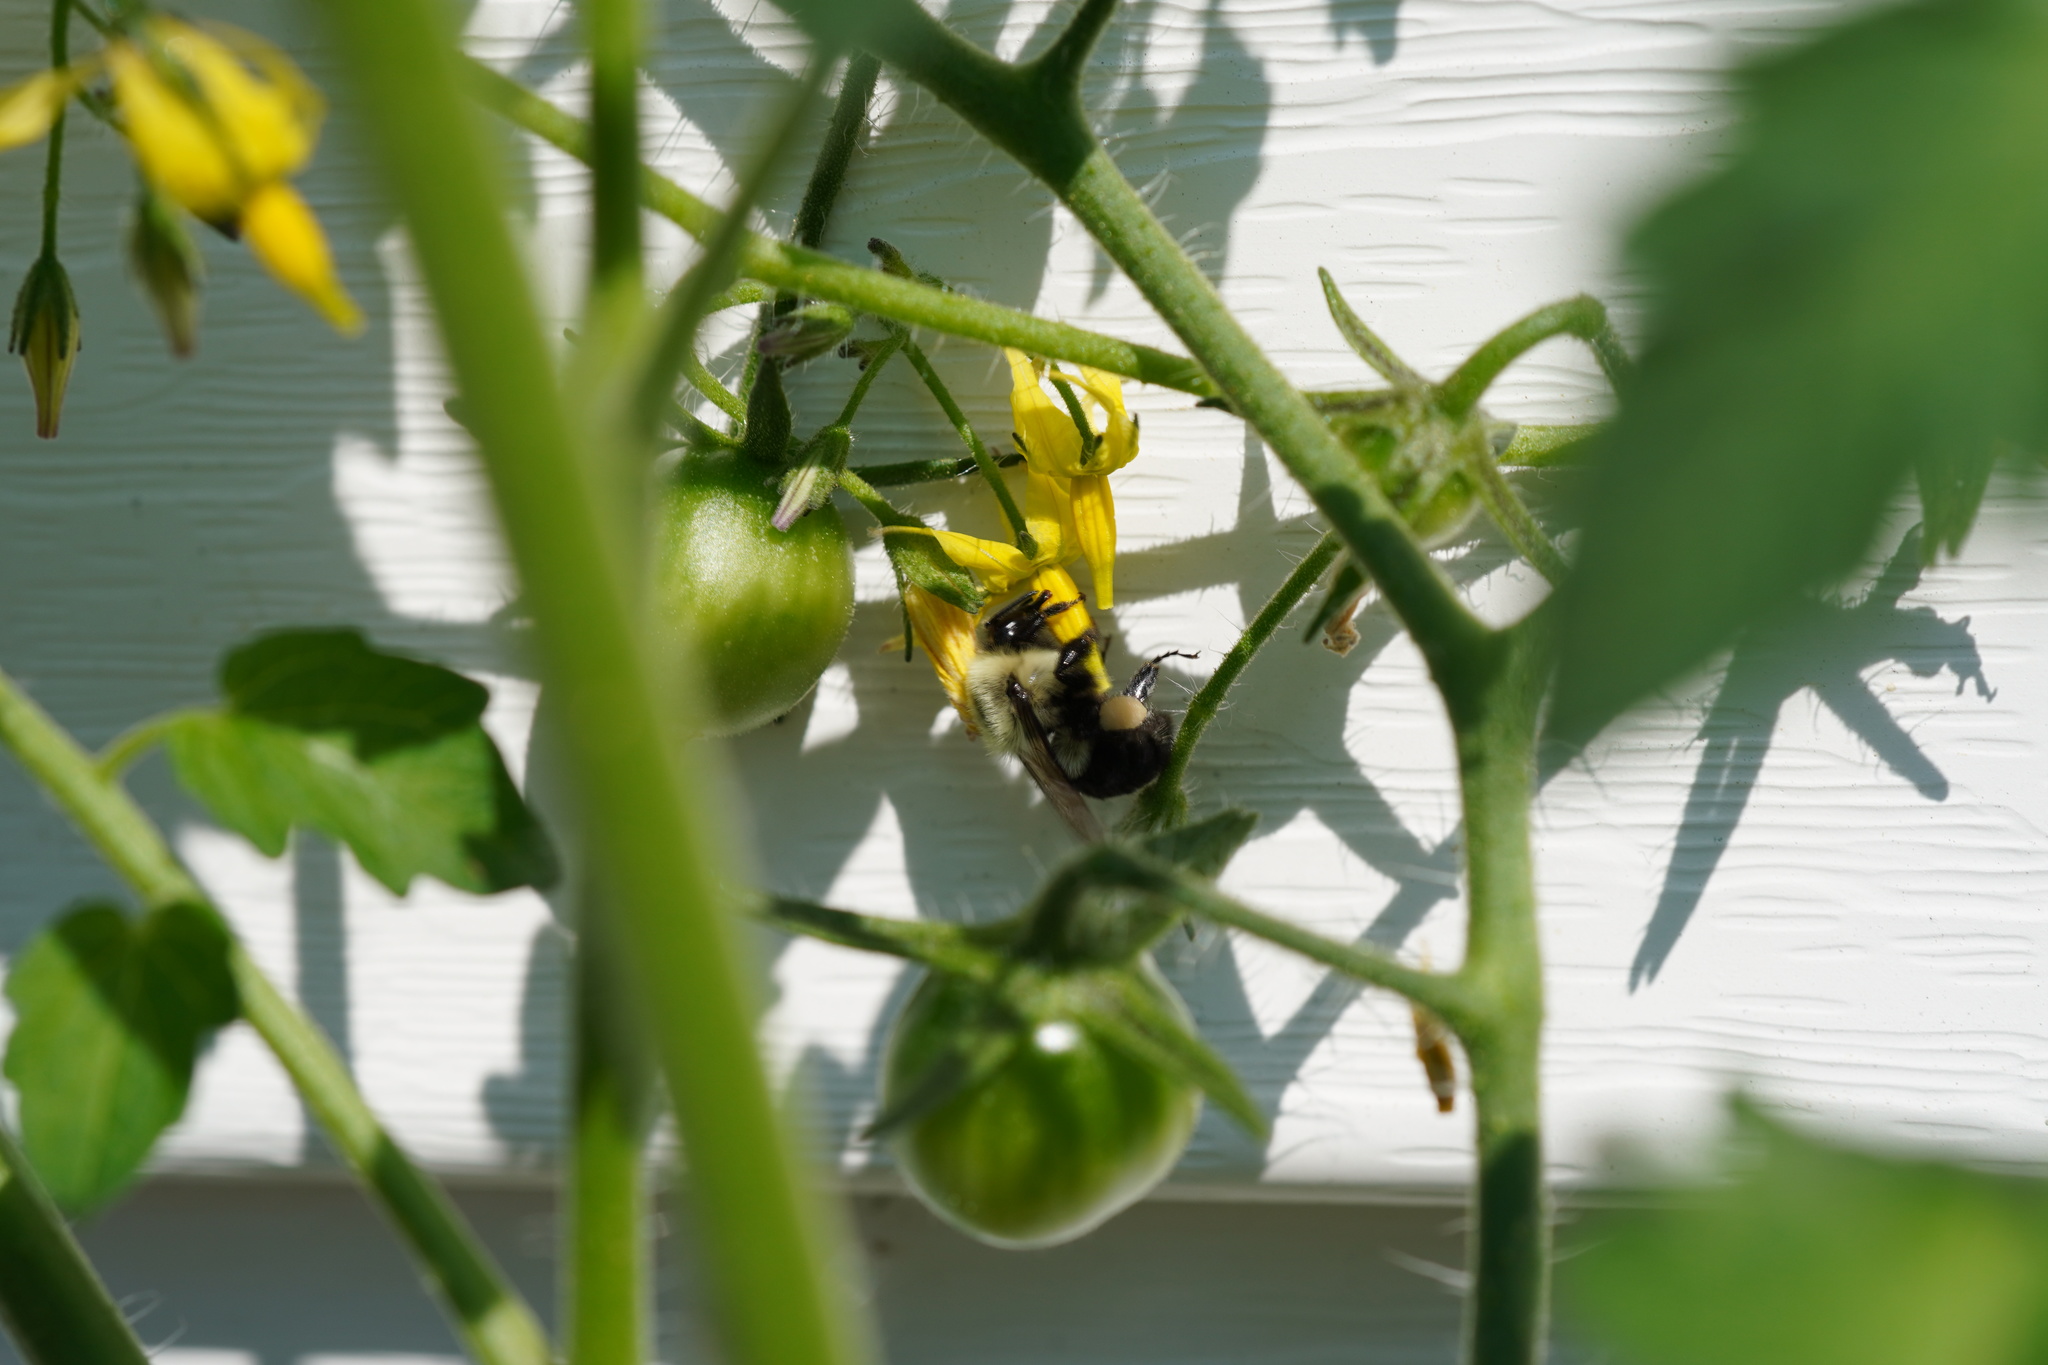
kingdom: Animalia
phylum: Arthropoda
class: Insecta
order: Hymenoptera
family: Apidae
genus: Bombus
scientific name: Bombus impatiens
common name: Common eastern bumble bee
